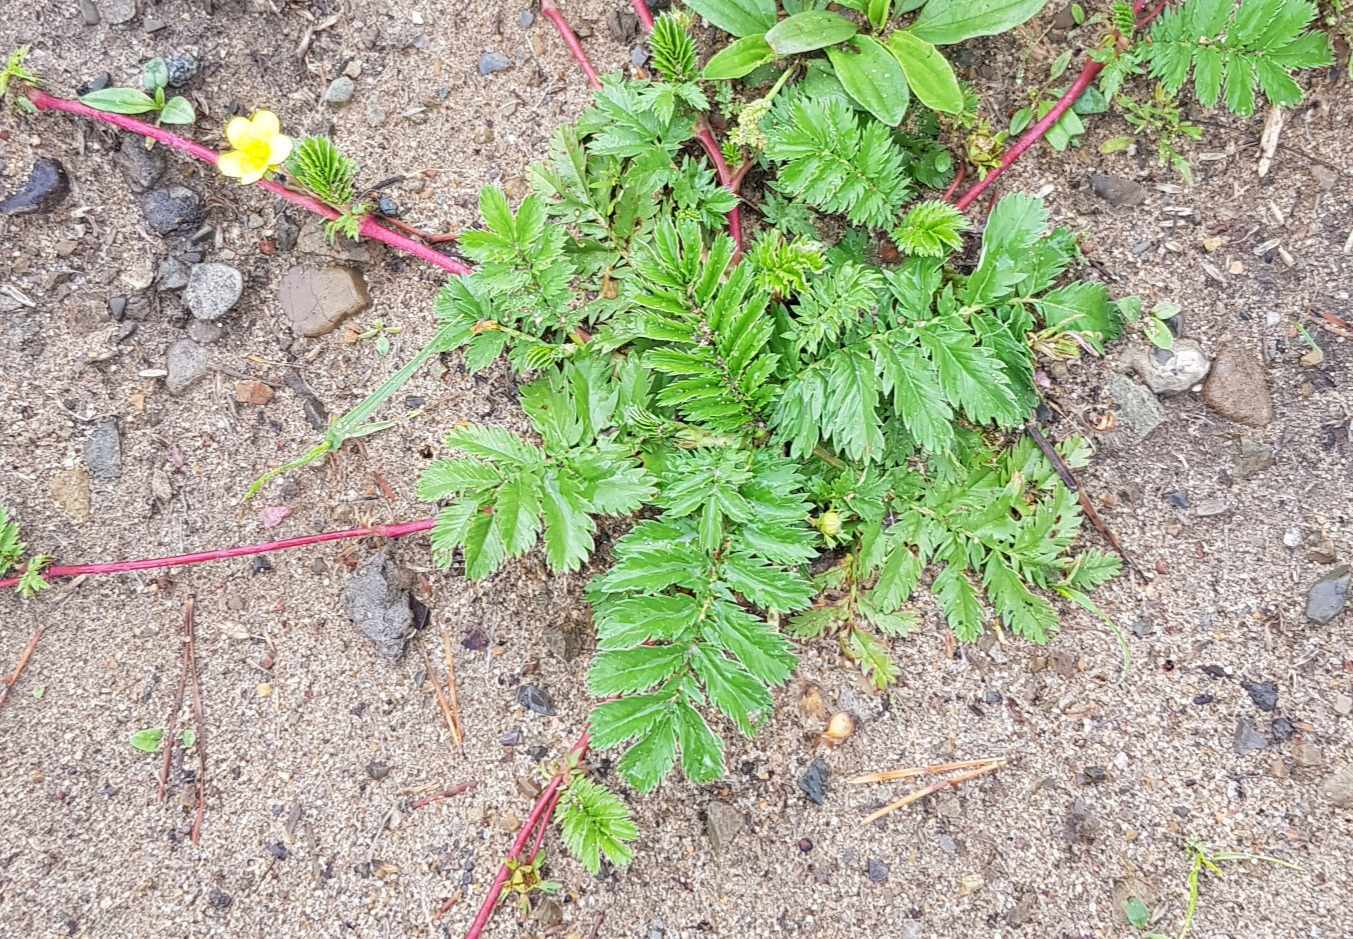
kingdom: Plantae
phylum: Tracheophyta
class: Magnoliopsida
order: Rosales
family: Rosaceae
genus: Argentina
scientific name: Argentina anserina
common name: Common silverweed
